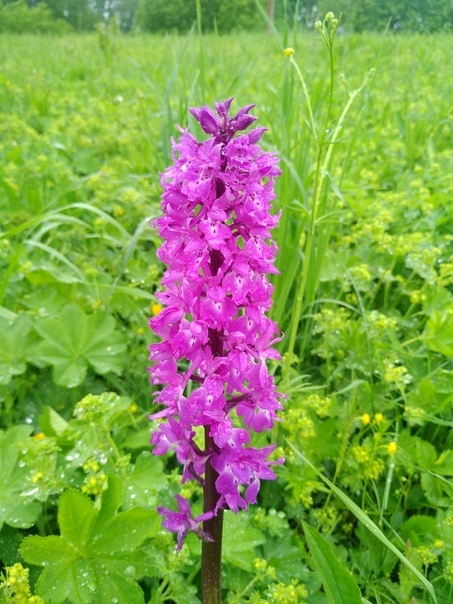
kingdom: Plantae
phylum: Tracheophyta
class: Liliopsida
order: Asparagales
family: Orchidaceae
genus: Orchis
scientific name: Orchis mascula
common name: Early-purple orchid
